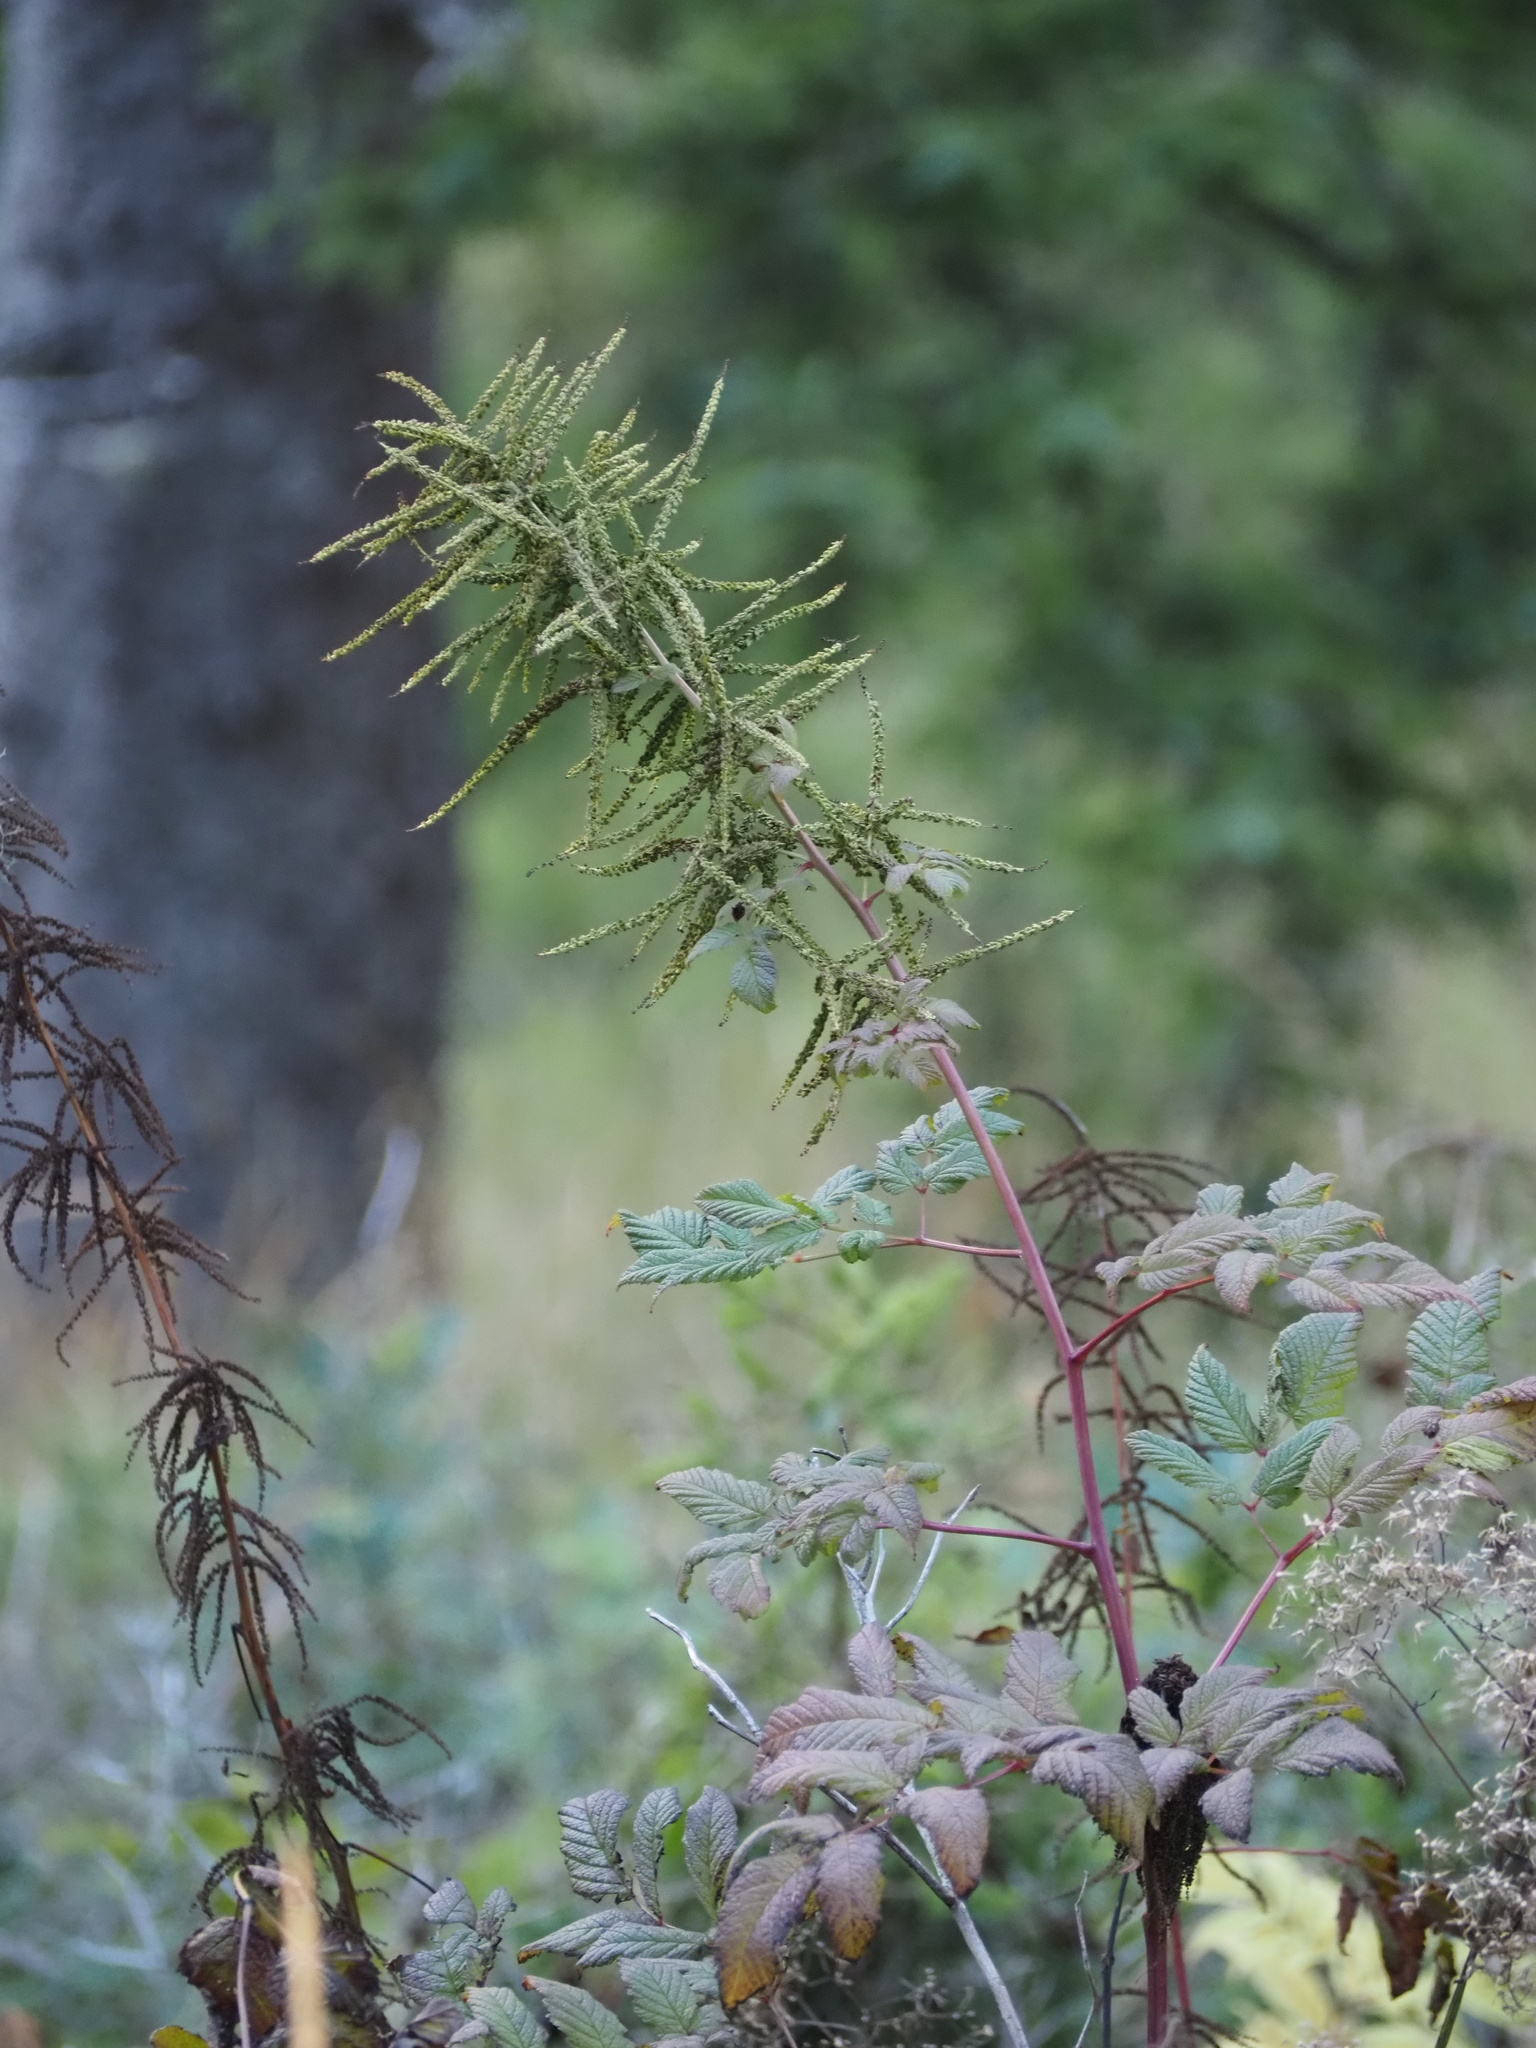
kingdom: Plantae
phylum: Tracheophyta
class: Magnoliopsida
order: Rosales
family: Rosaceae
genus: Aruncus
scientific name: Aruncus dioicus
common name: Buck's-beard
